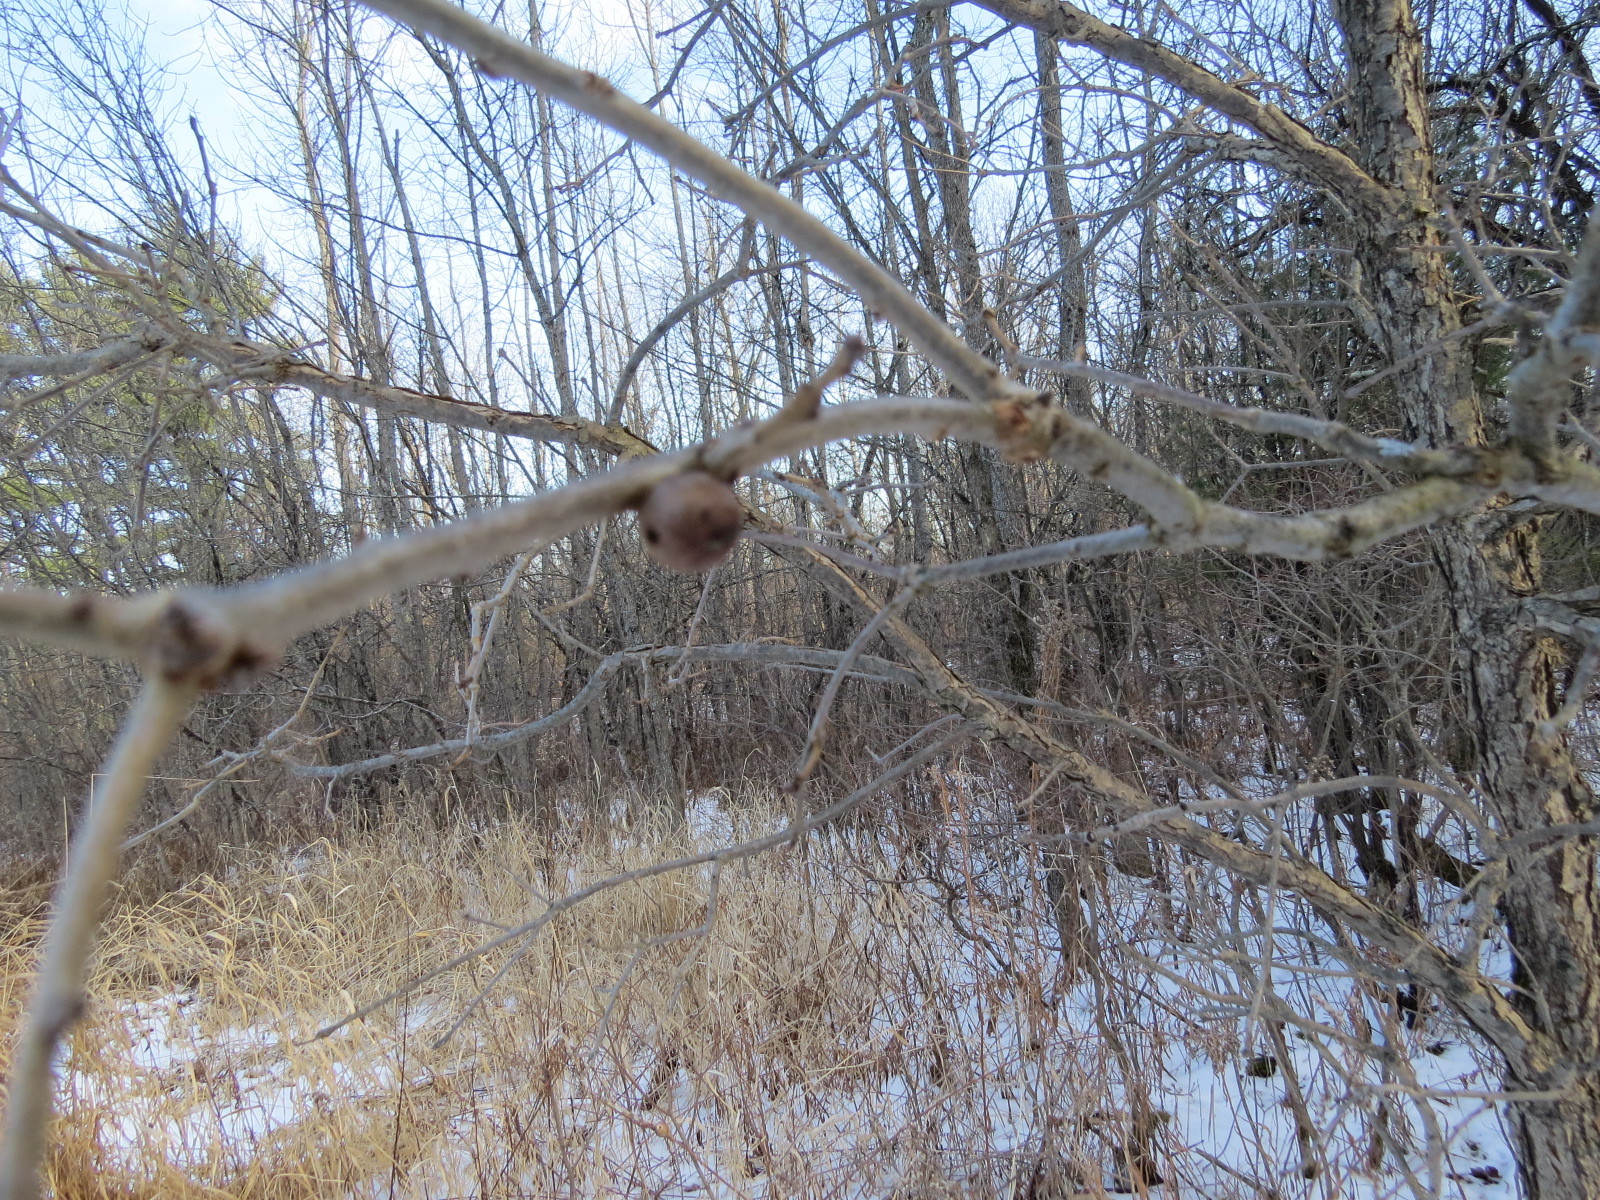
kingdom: Animalia
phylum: Arthropoda
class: Insecta
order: Hymenoptera
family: Cynipidae
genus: Disholcaspis
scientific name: Disholcaspis quercusglobulus
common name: Round bullet gall wasp
